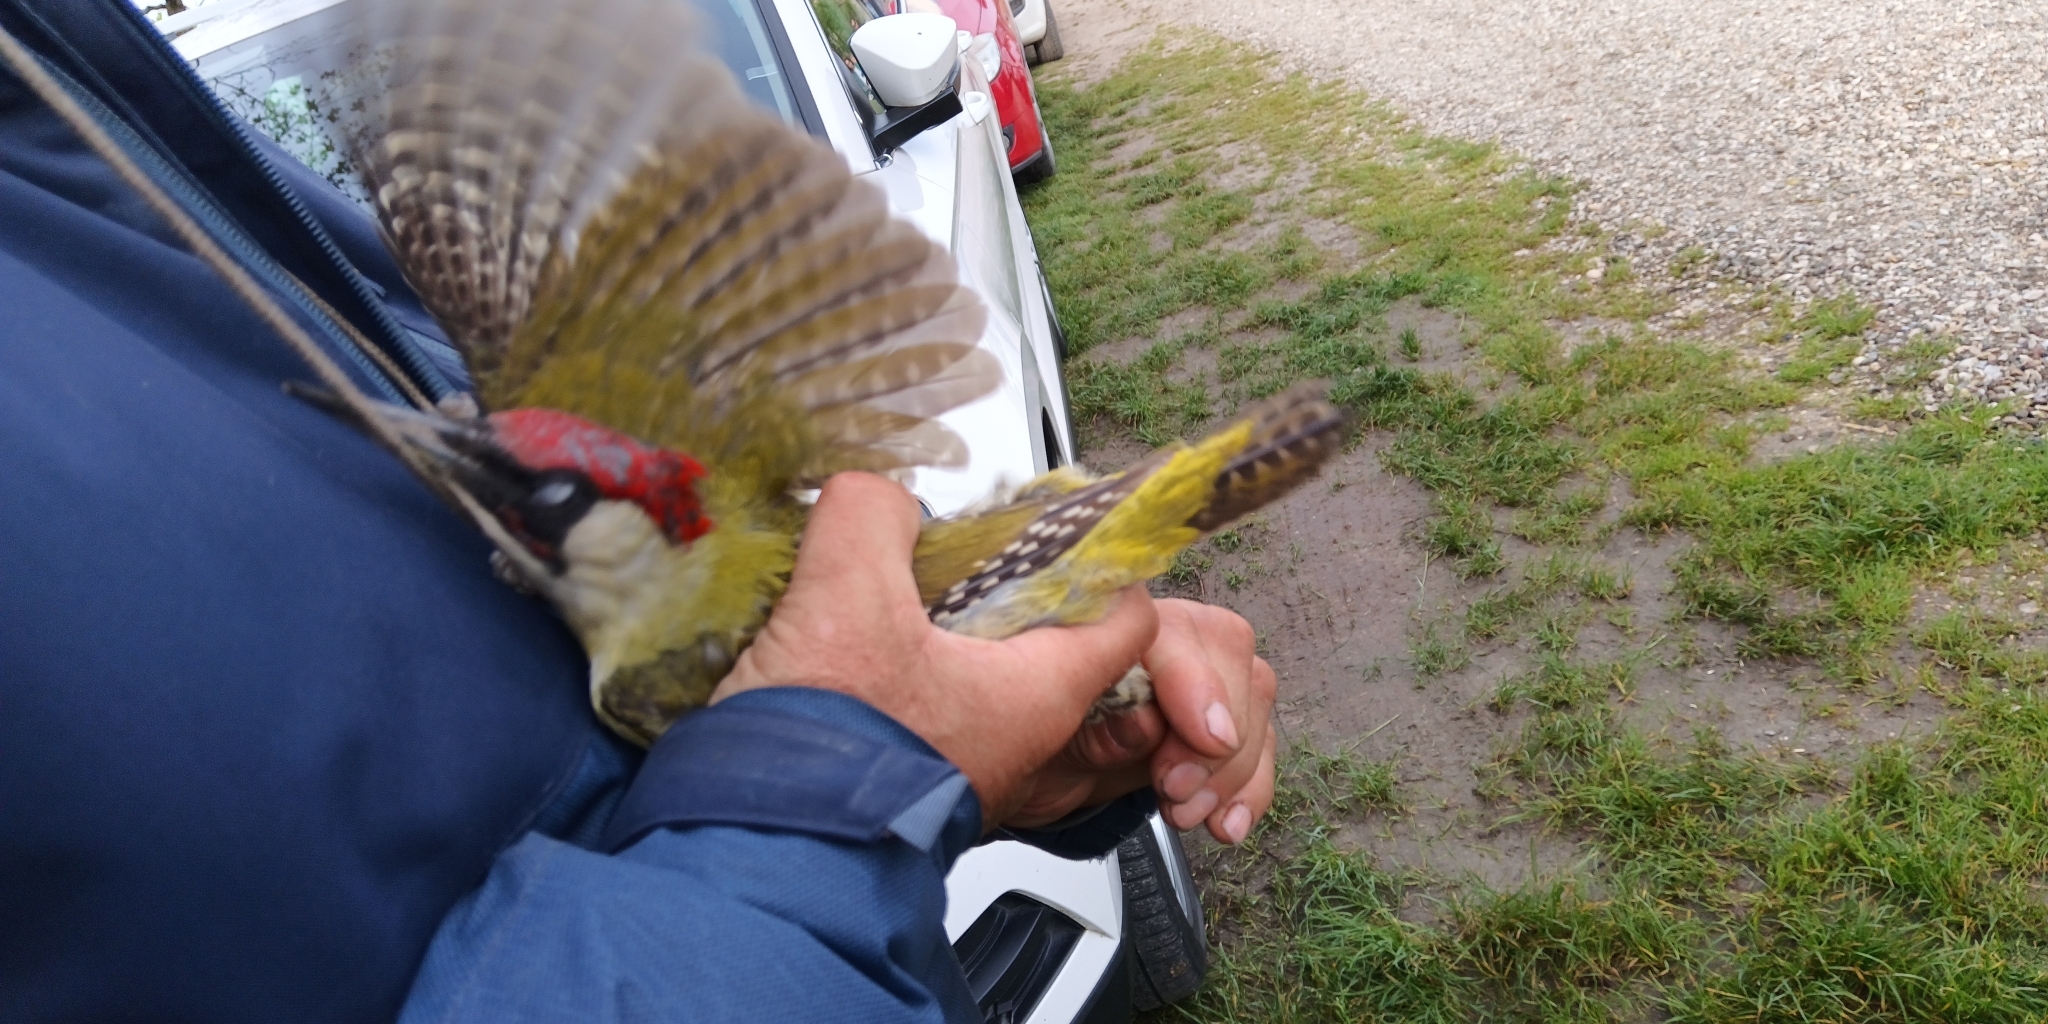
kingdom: Animalia
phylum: Chordata
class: Aves
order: Piciformes
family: Picidae
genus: Picus
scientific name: Picus viridis
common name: European green woodpecker
